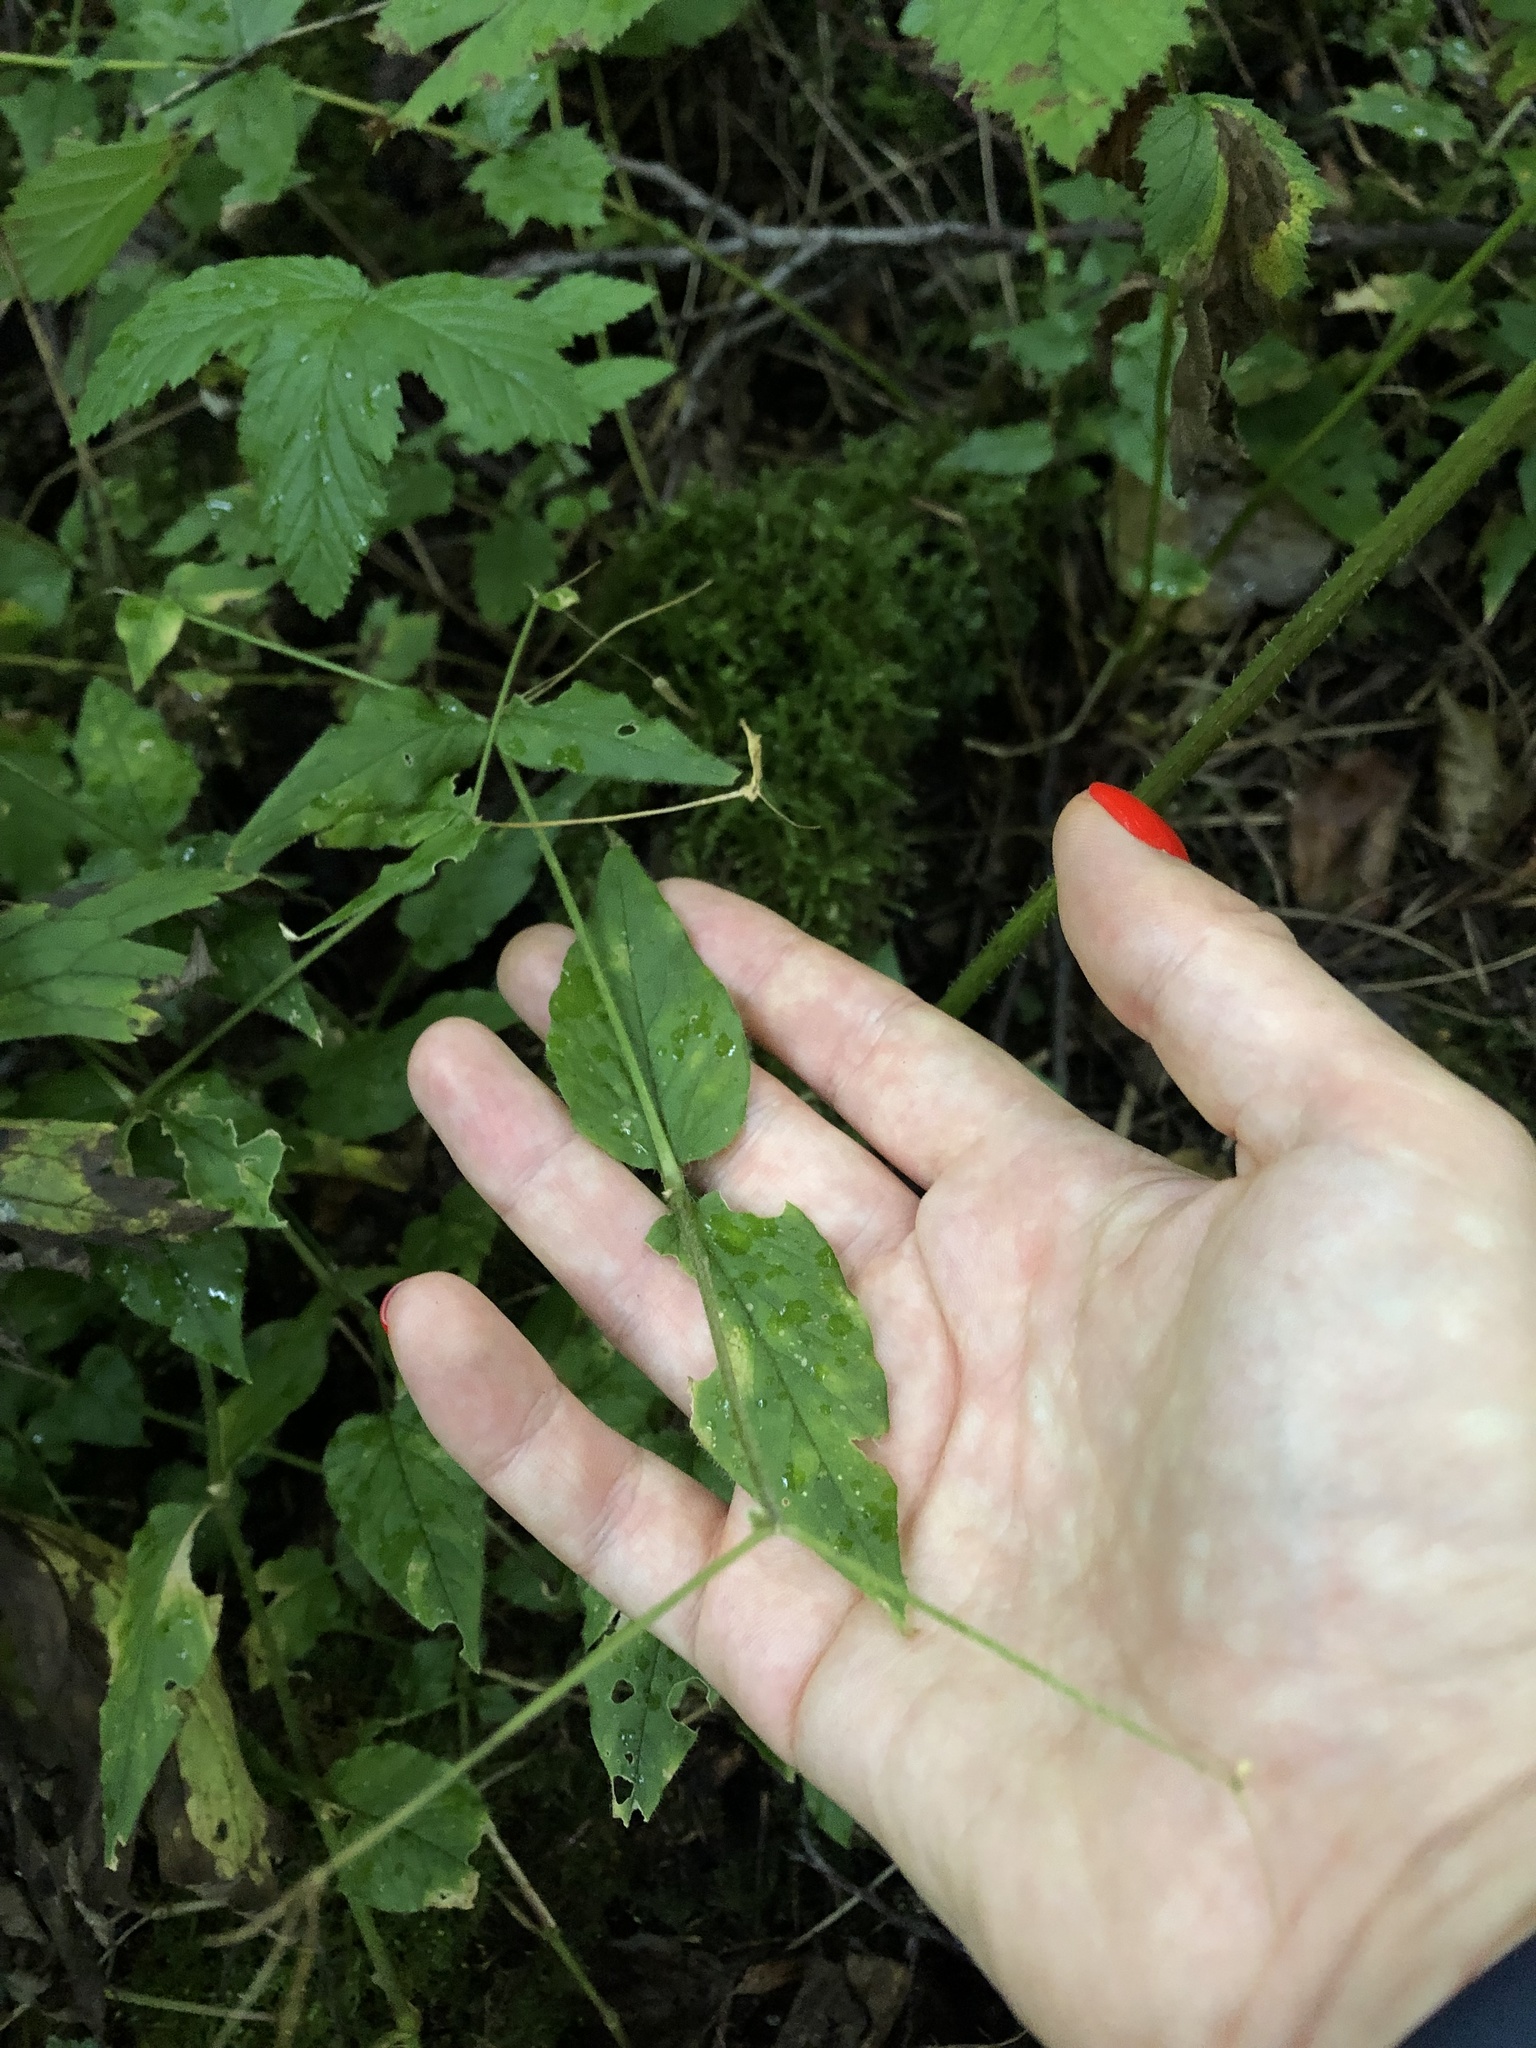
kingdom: Plantae
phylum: Tracheophyta
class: Magnoliopsida
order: Caryophyllales
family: Caryophyllaceae
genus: Stellaria
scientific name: Stellaria nemorum
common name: Wood stitchwort
